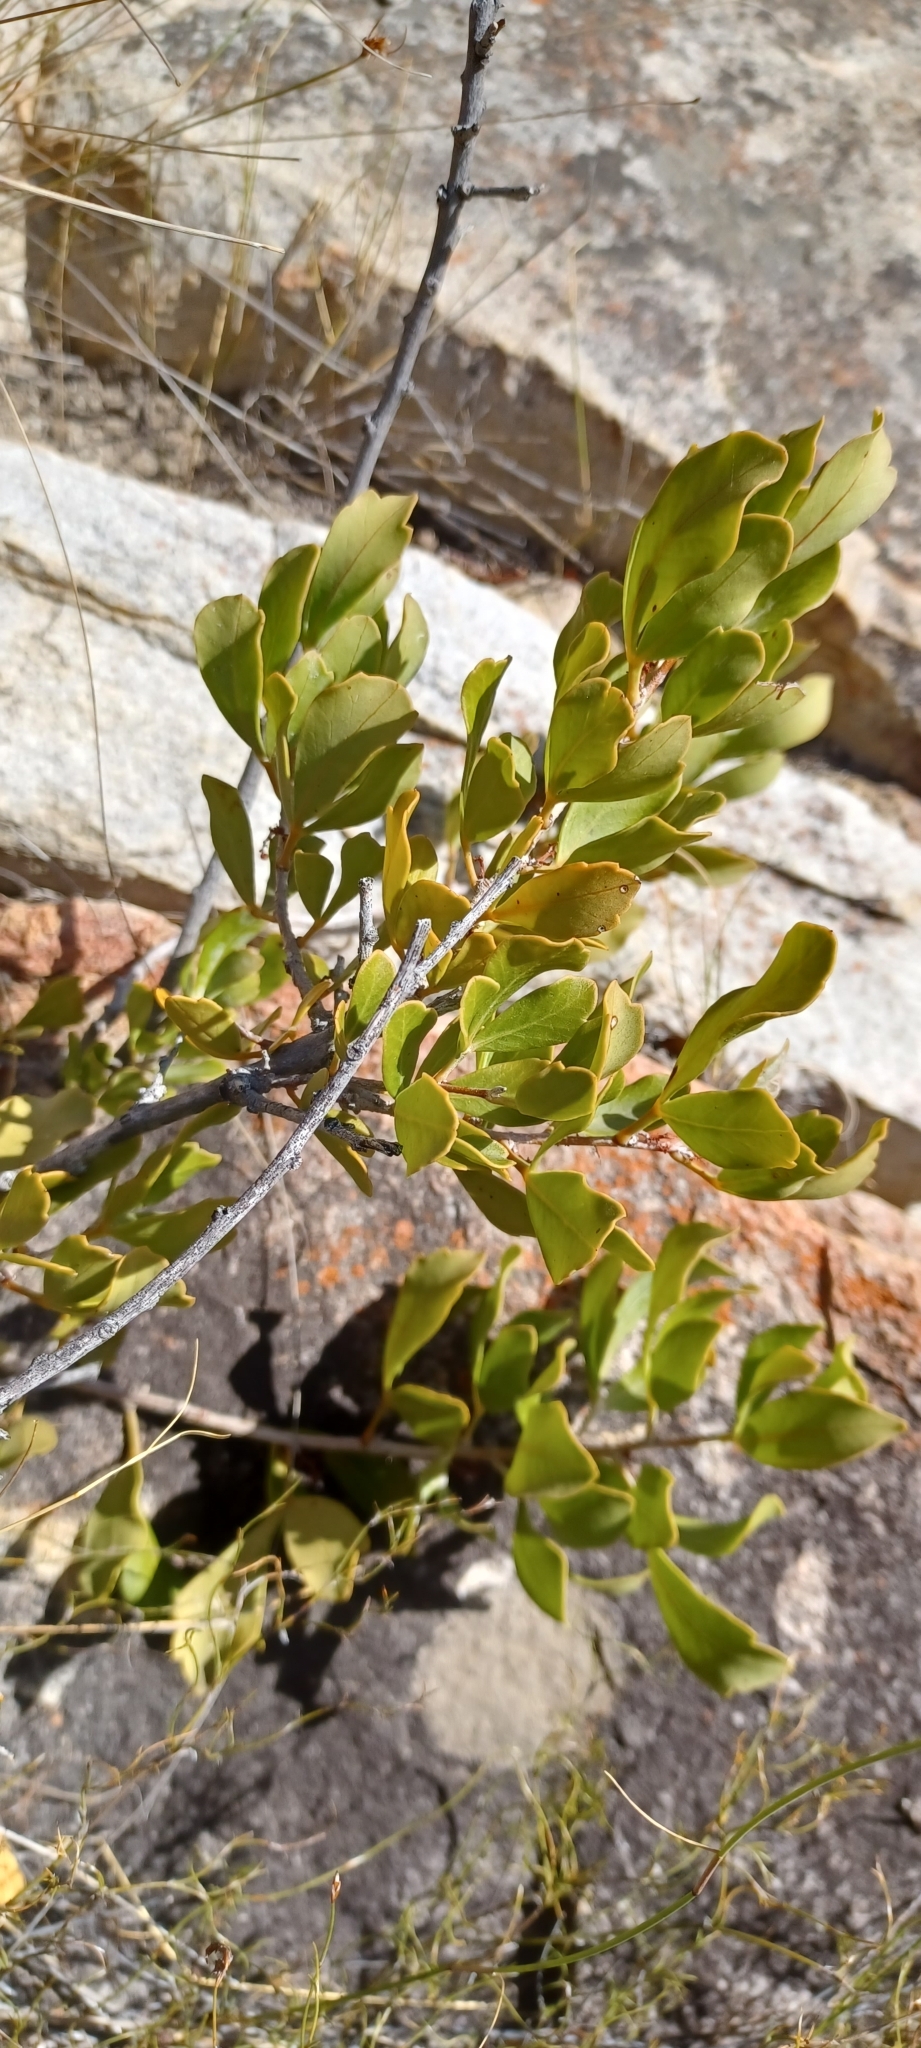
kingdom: Plantae
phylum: Tracheophyta
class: Magnoliopsida
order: Sapindales
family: Anacardiaceae
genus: Searsia
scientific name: Searsia scytophylla
